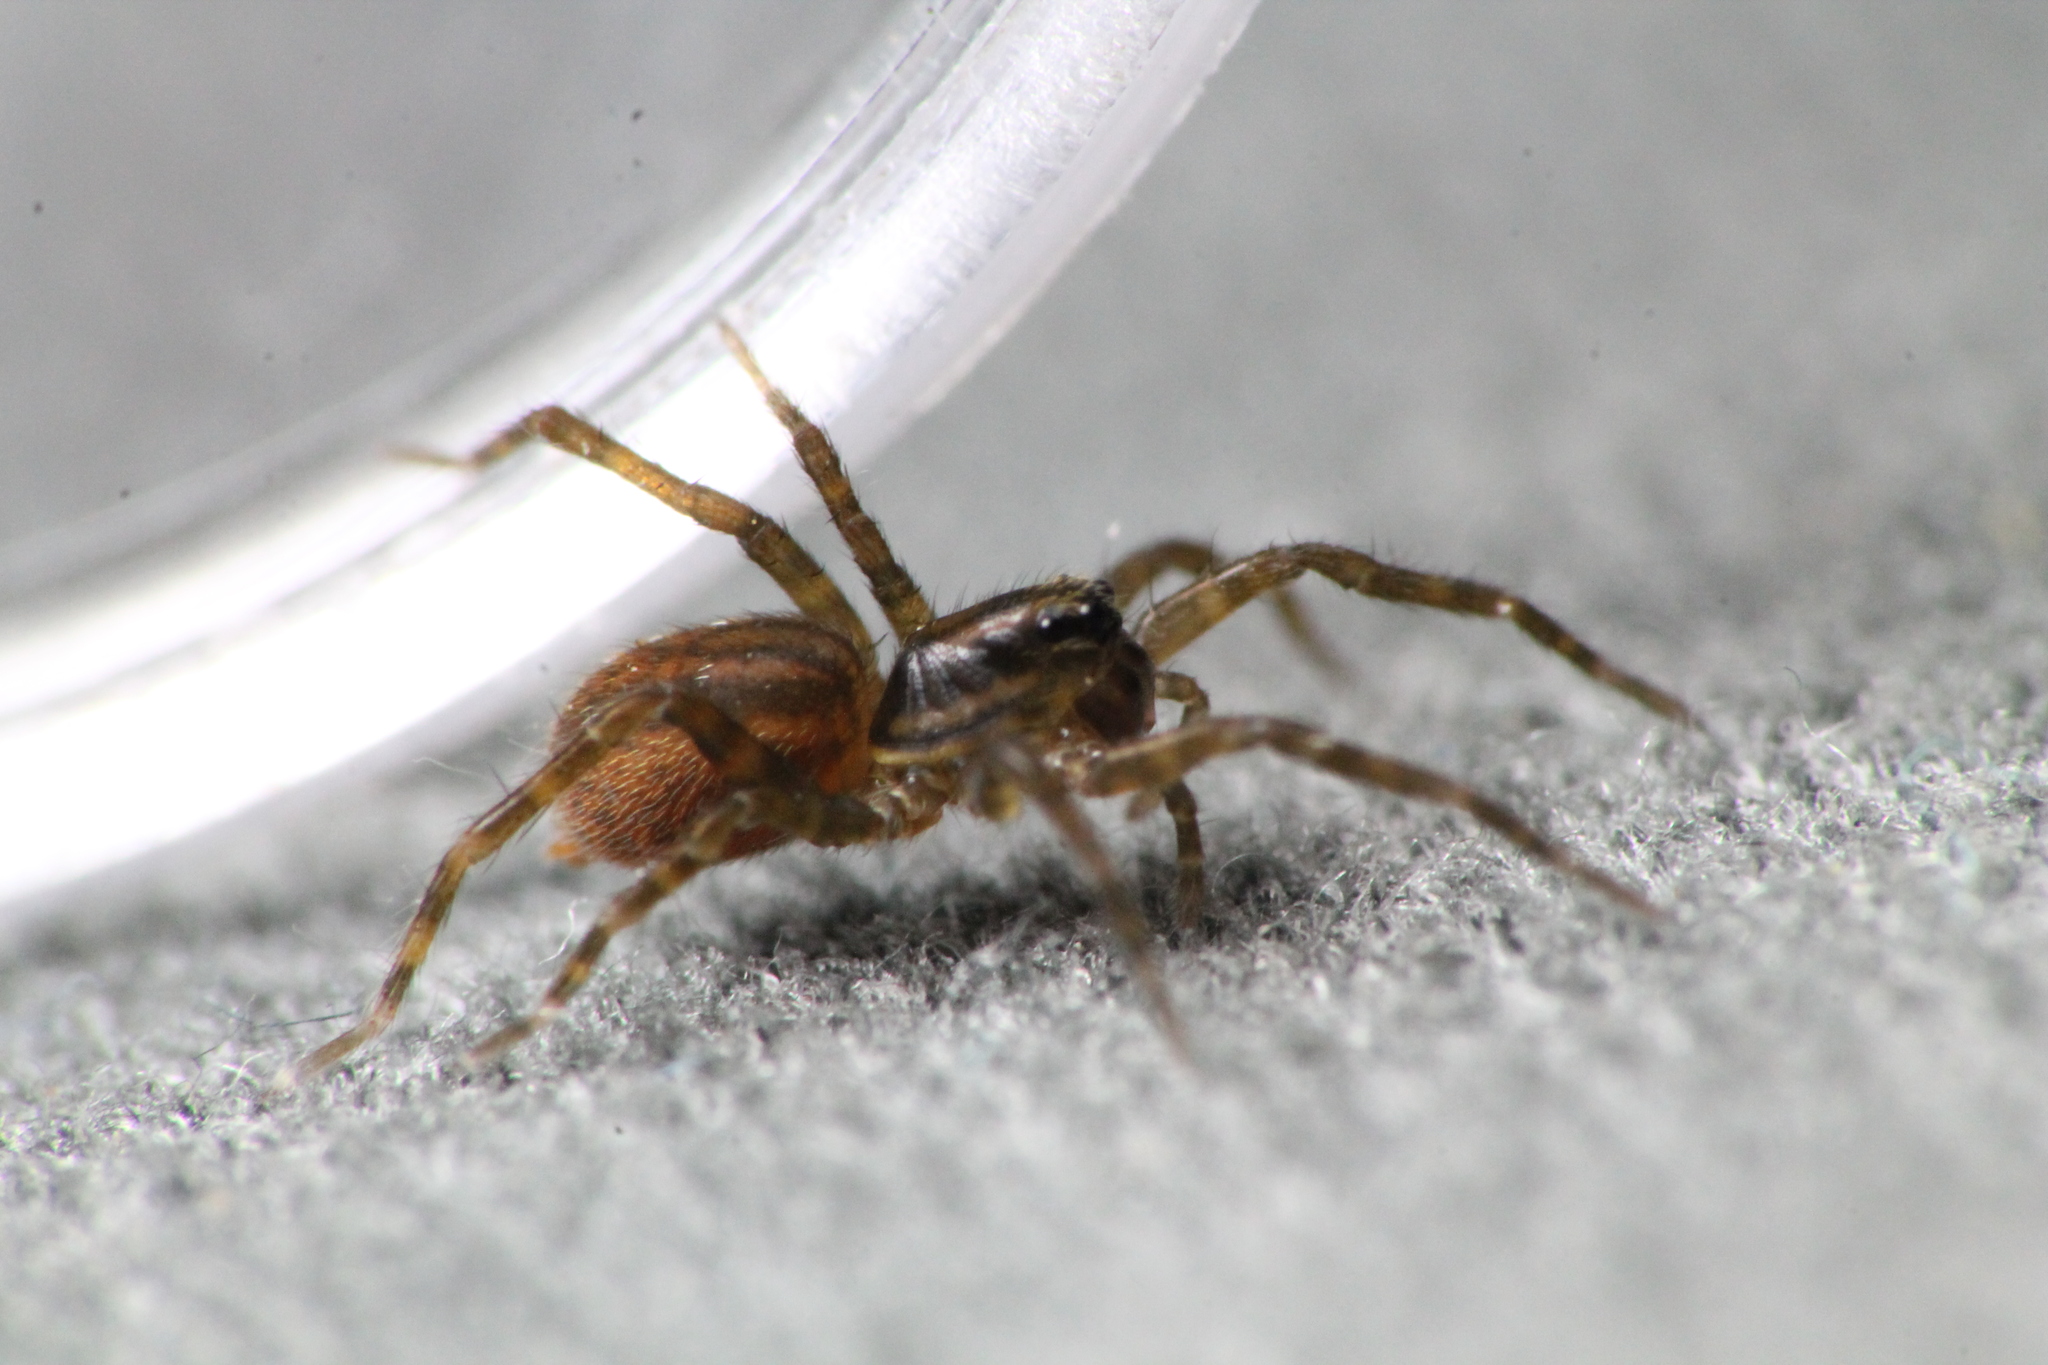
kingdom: Animalia
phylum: Arthropoda
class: Arachnida
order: Araneae
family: Lycosidae
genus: Allotrochosina
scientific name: Allotrochosina schauinslandi
